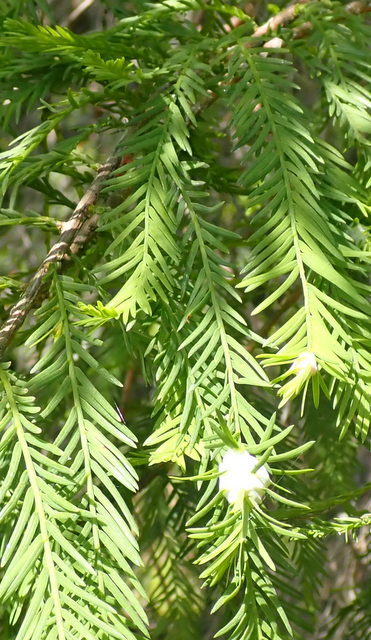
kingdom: Animalia
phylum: Arthropoda
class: Insecta
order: Diptera
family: Cecidomyiidae
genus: Taxodiomyia
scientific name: Taxodiomyia cupressiananassa
